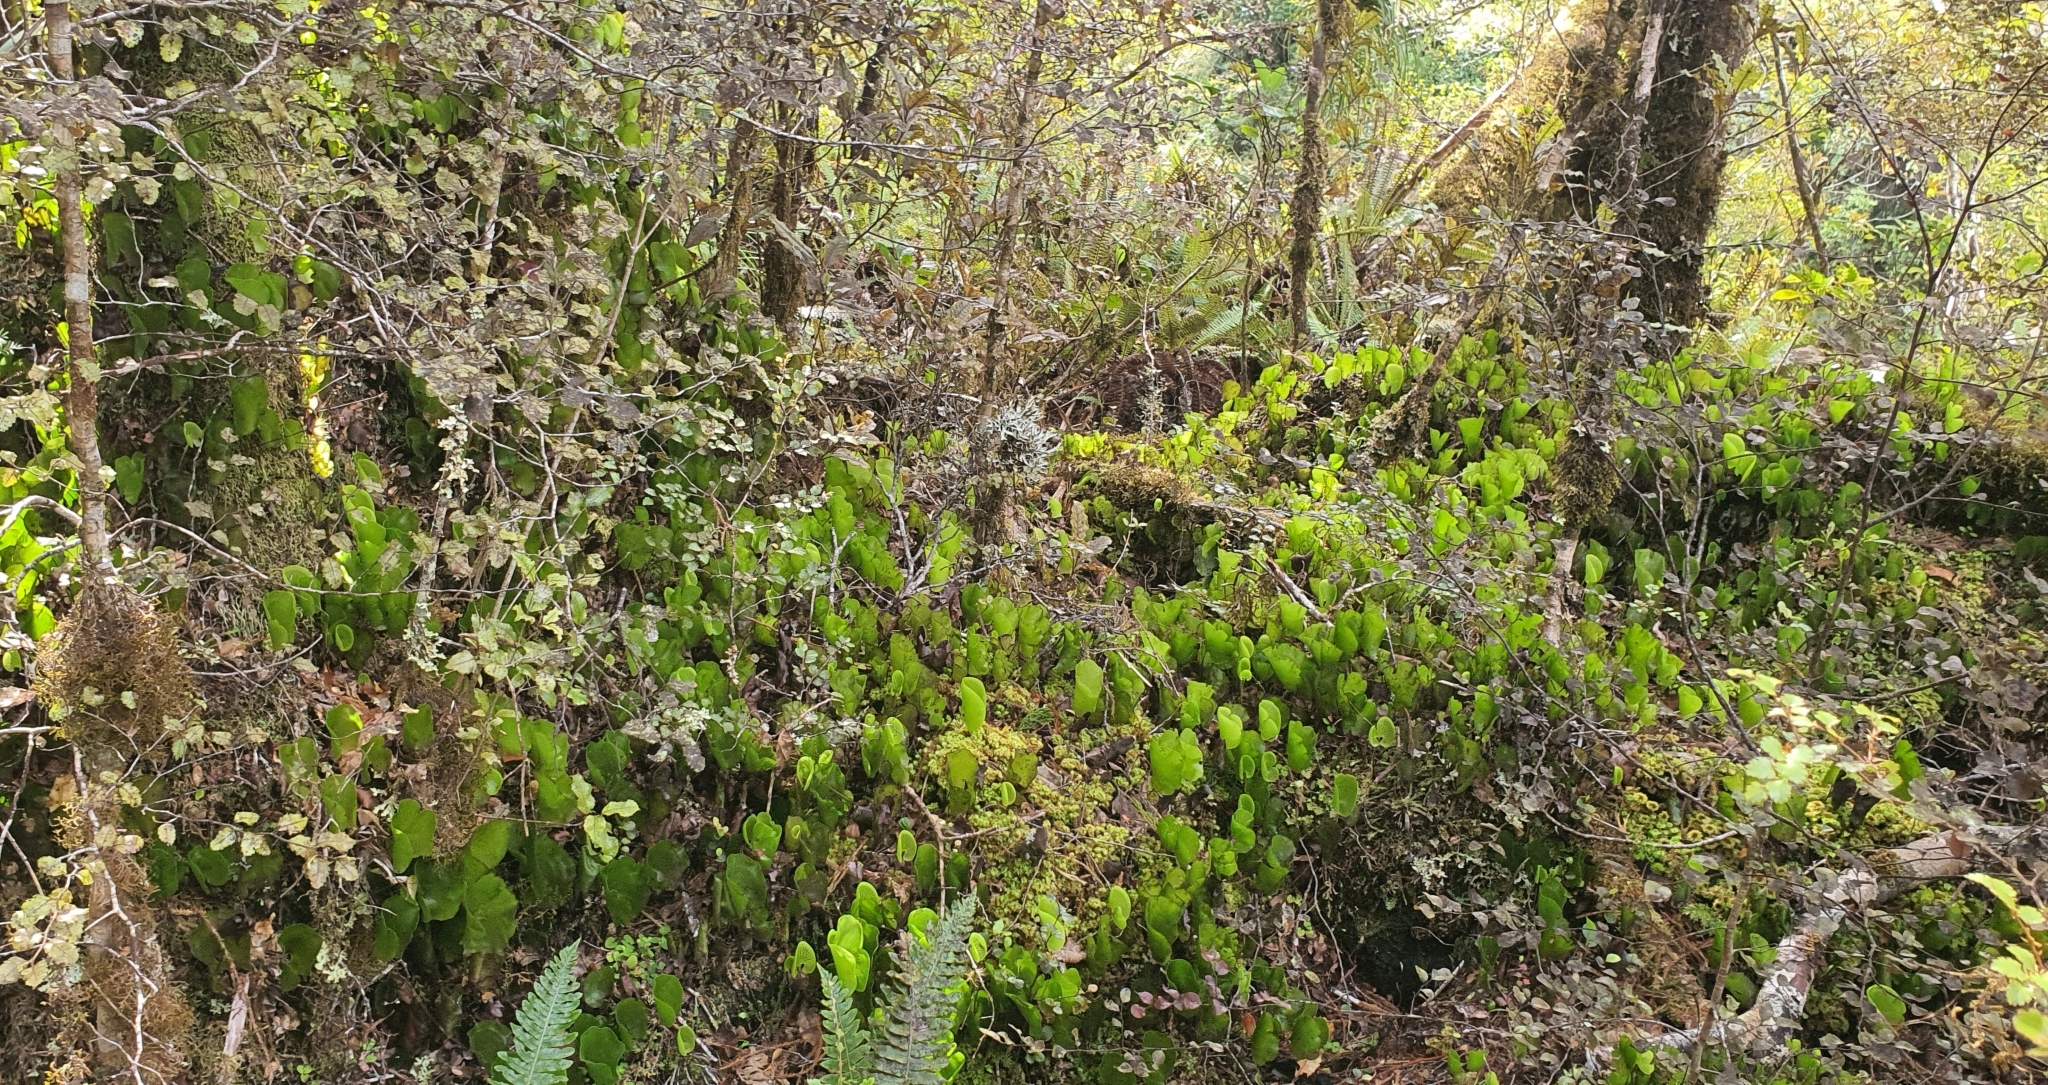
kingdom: Plantae
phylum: Tracheophyta
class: Polypodiopsida
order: Hymenophyllales
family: Hymenophyllaceae
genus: Hymenophyllum
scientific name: Hymenophyllum nephrophyllum
